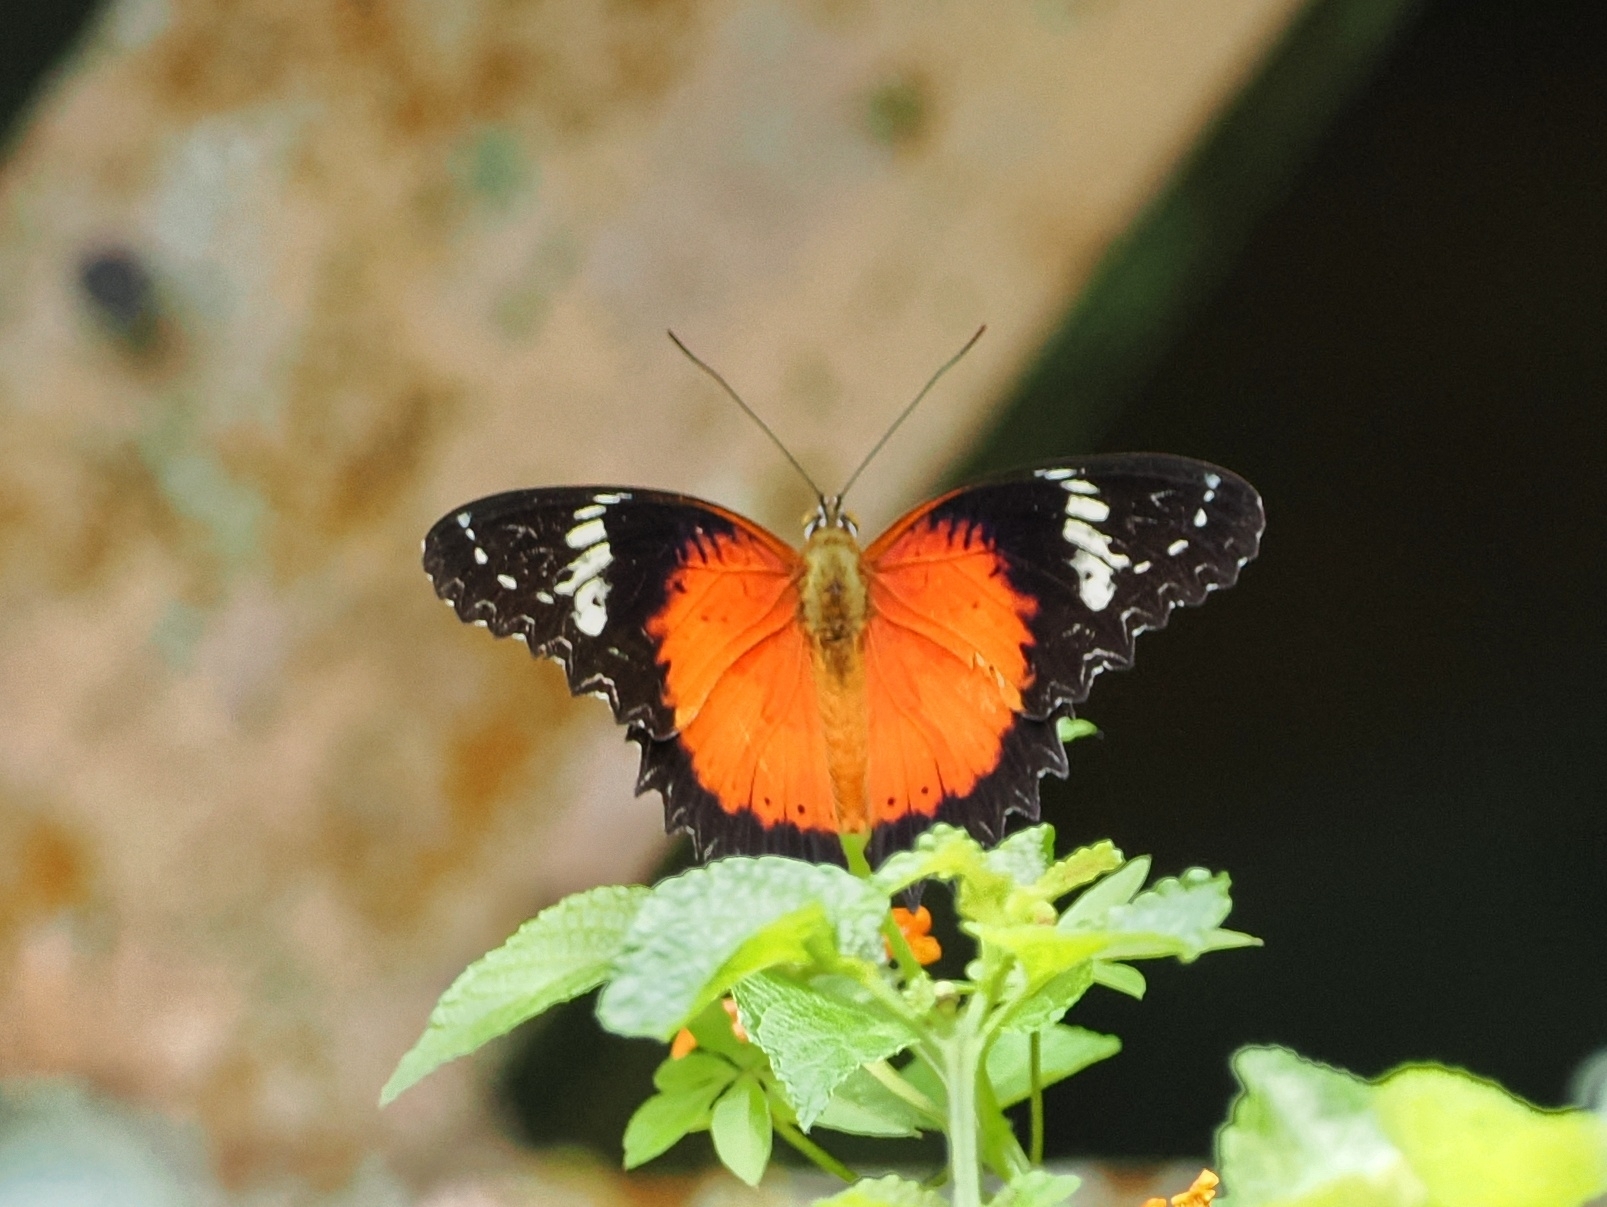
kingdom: Animalia
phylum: Arthropoda
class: Insecta
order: Lepidoptera
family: Nymphalidae
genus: Cethosia
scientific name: Cethosia penthesilea
